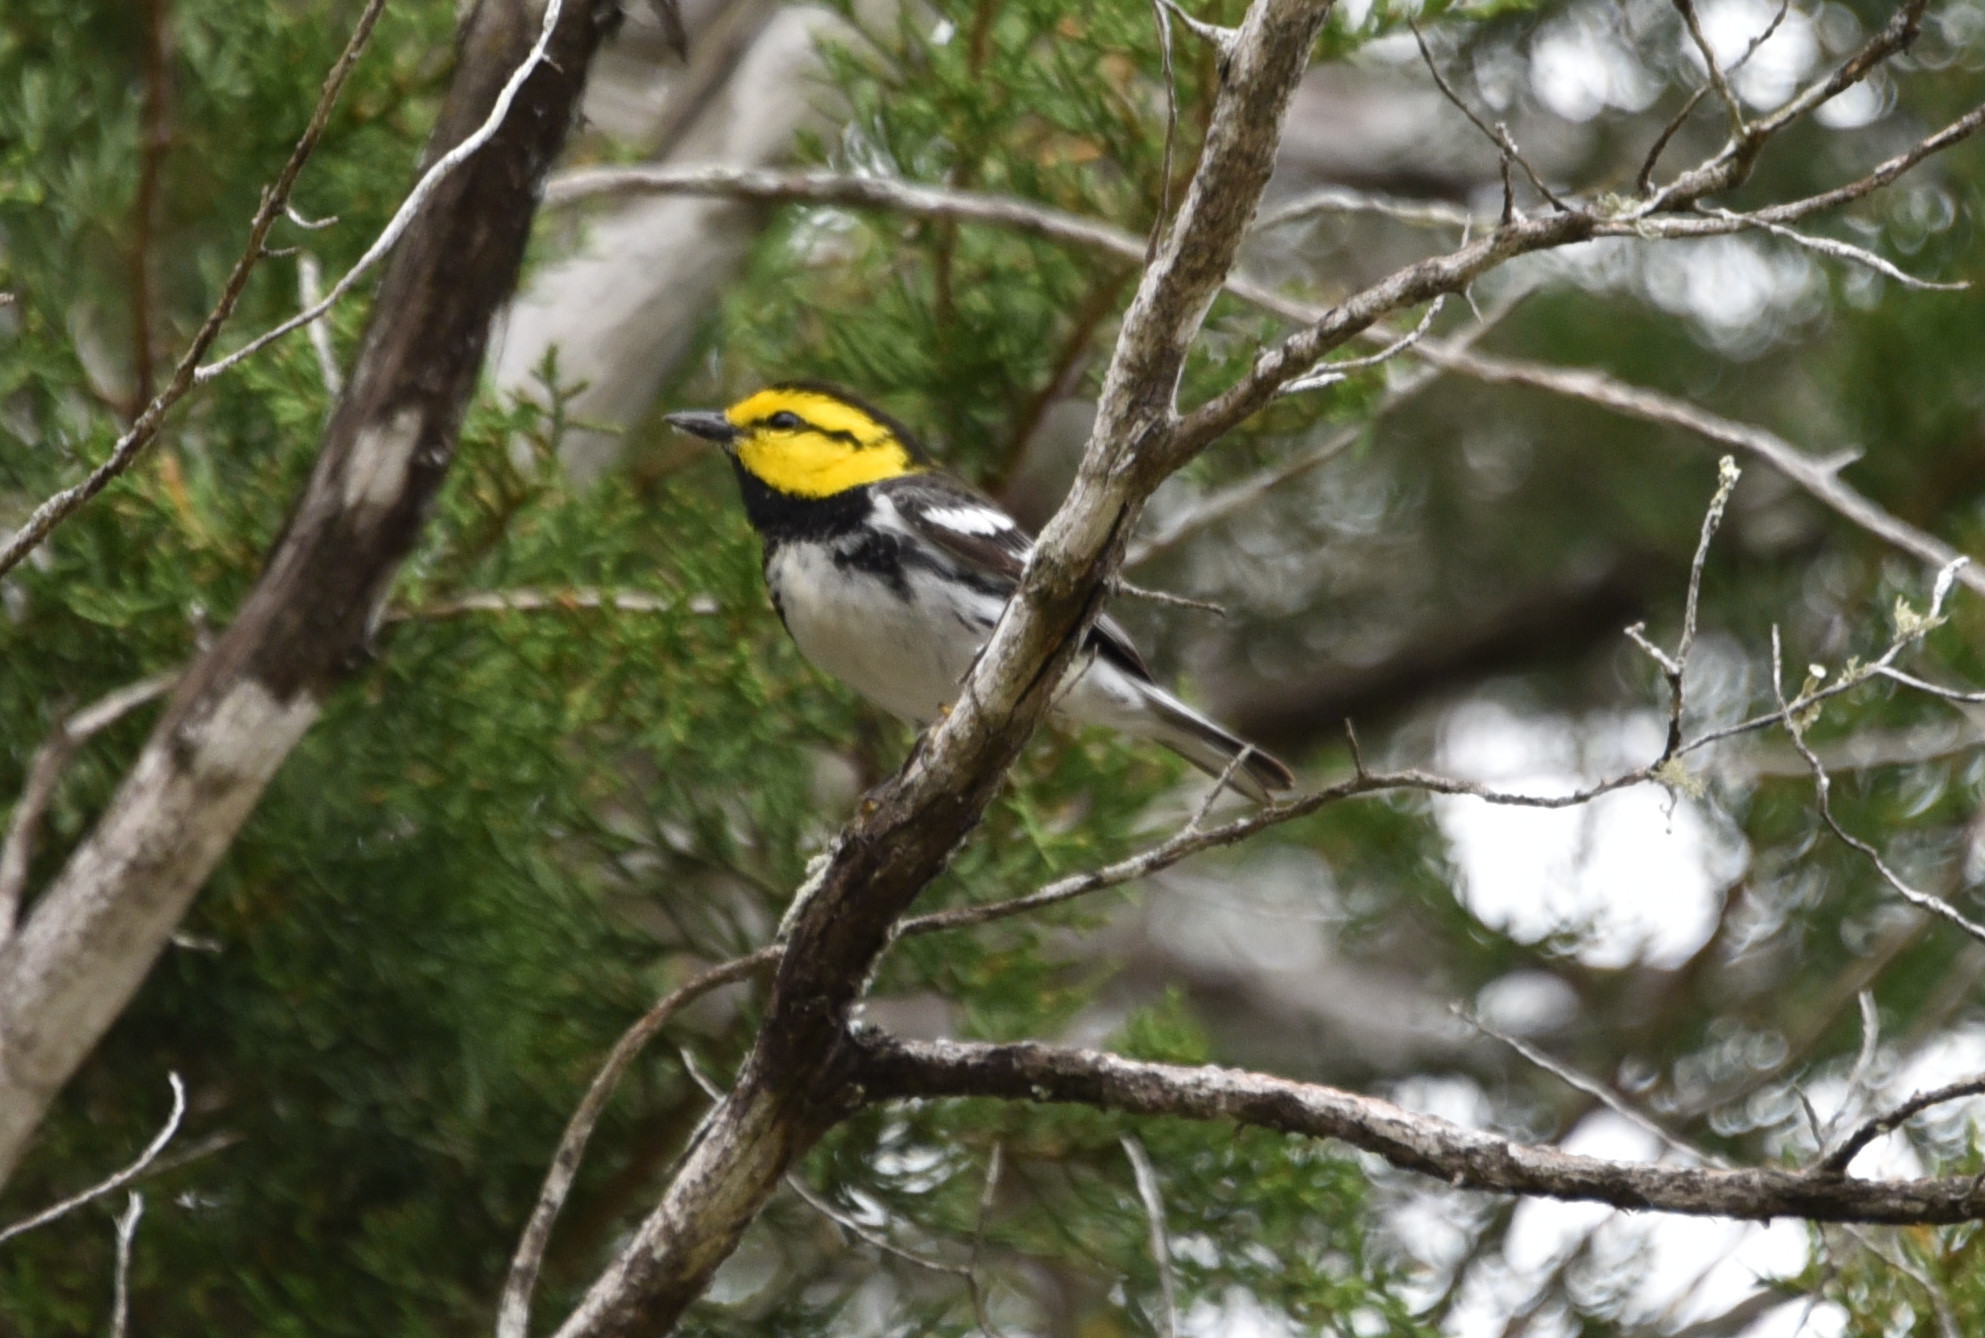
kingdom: Animalia
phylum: Chordata
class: Aves
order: Passeriformes
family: Parulidae
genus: Setophaga
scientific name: Setophaga chrysoparia
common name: Golden-cheeked warbler
